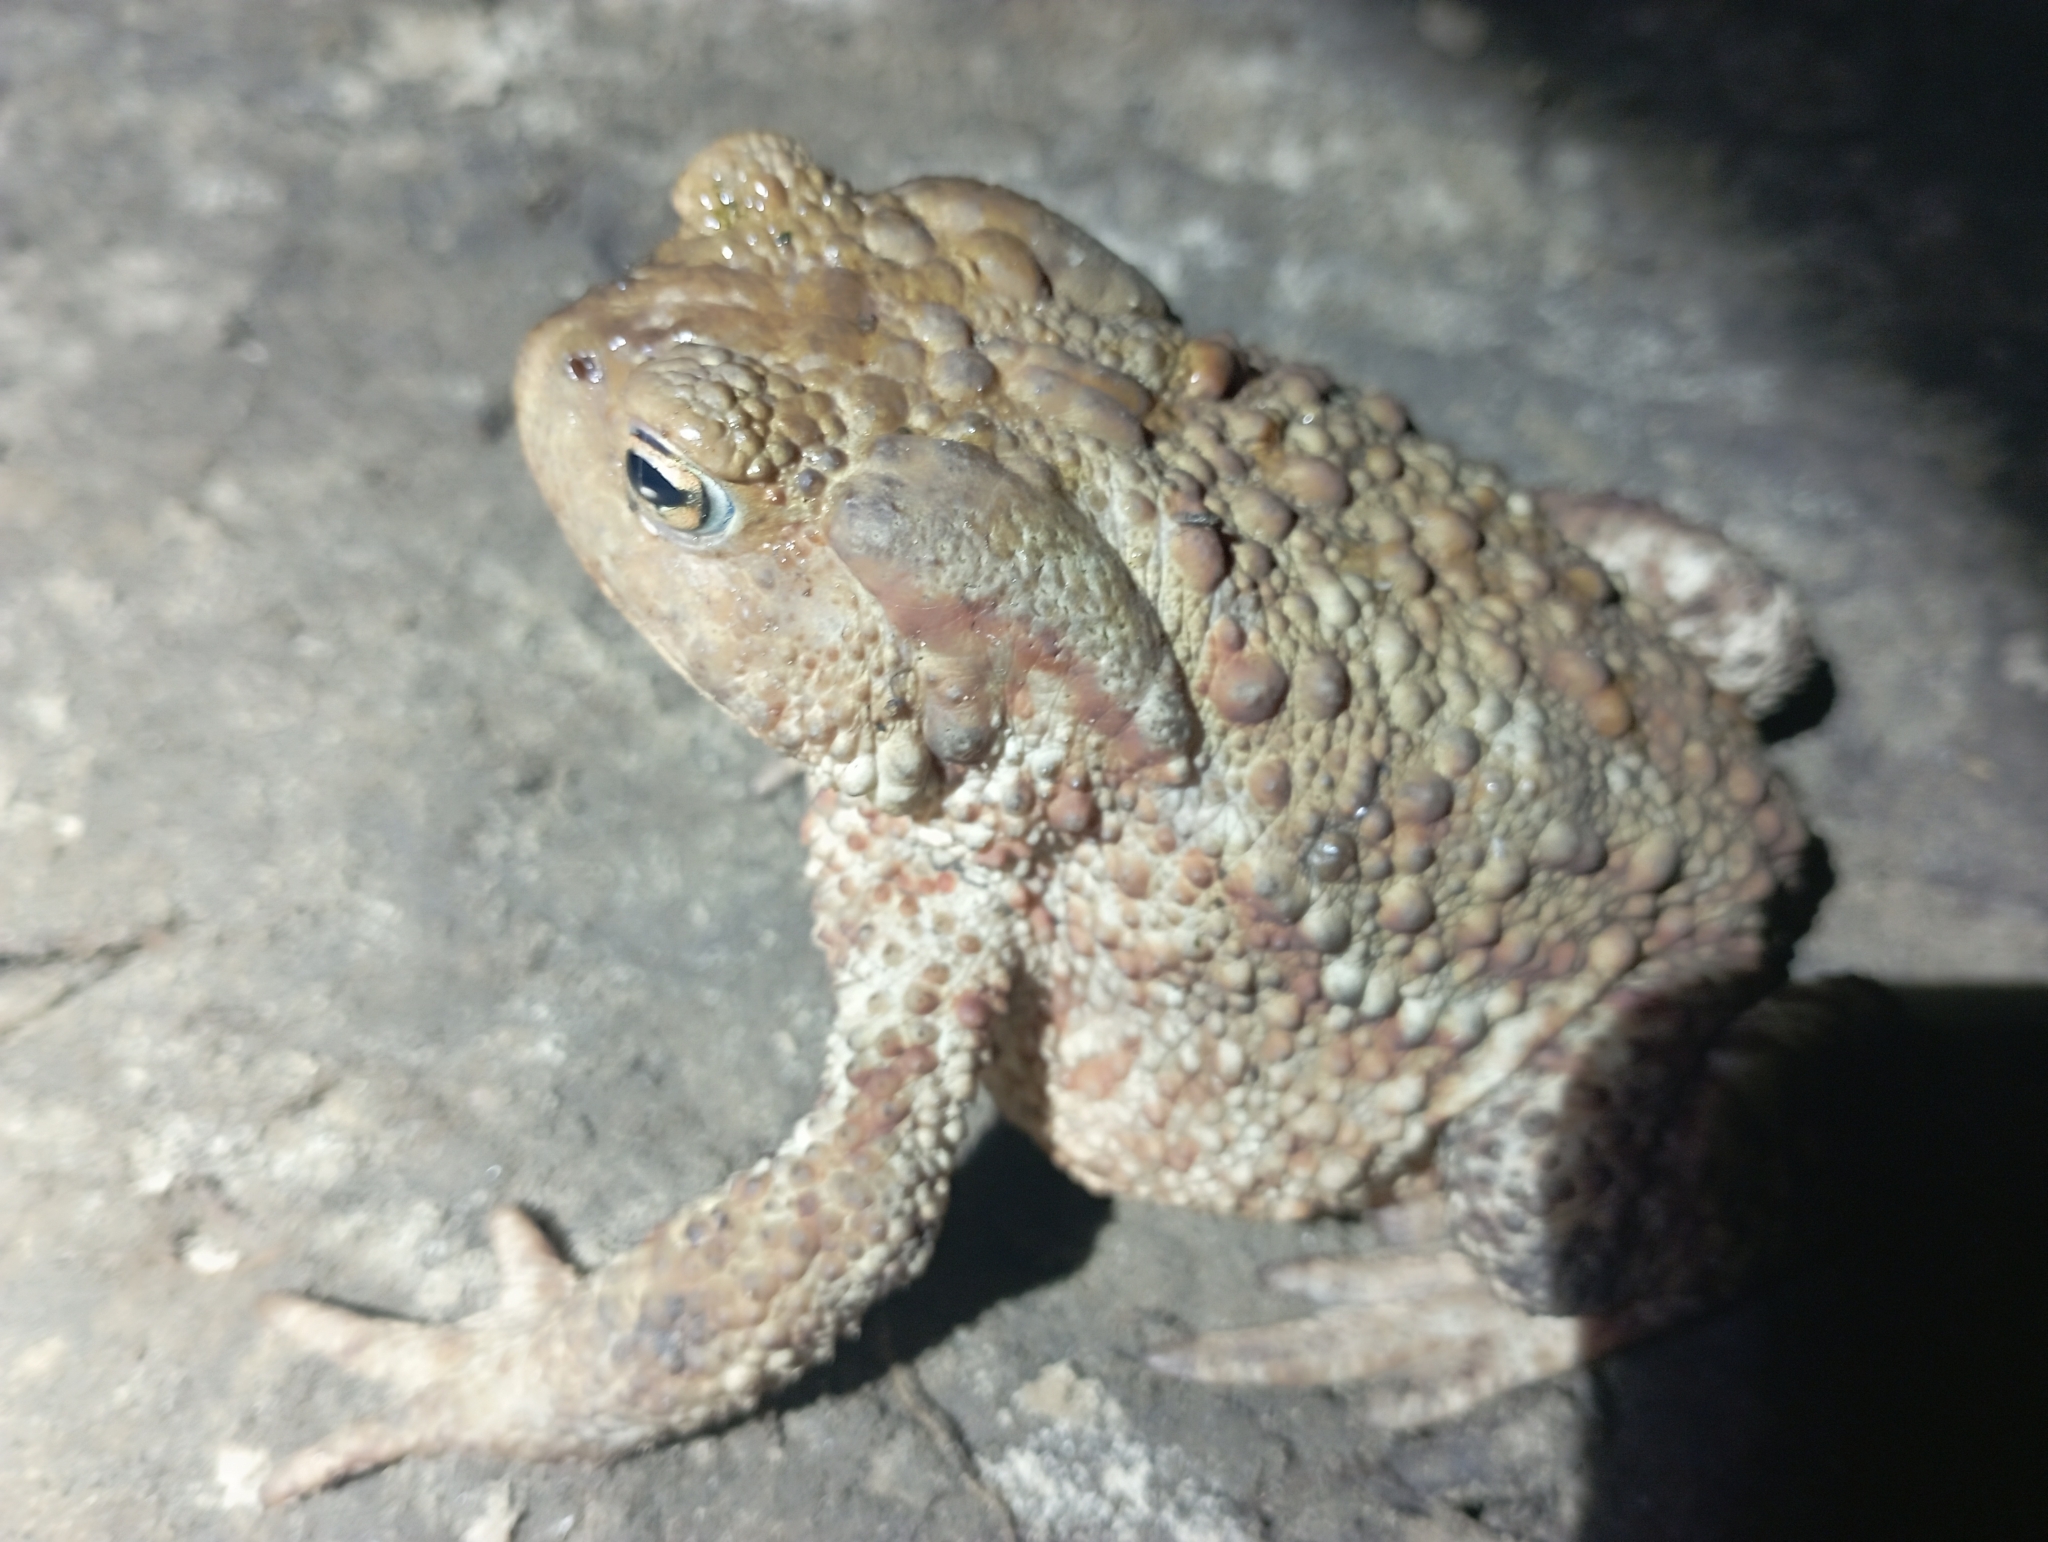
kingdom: Animalia
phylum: Chordata
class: Amphibia
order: Anura
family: Bufonidae
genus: Bufo
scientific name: Bufo bufo
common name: Common toad
